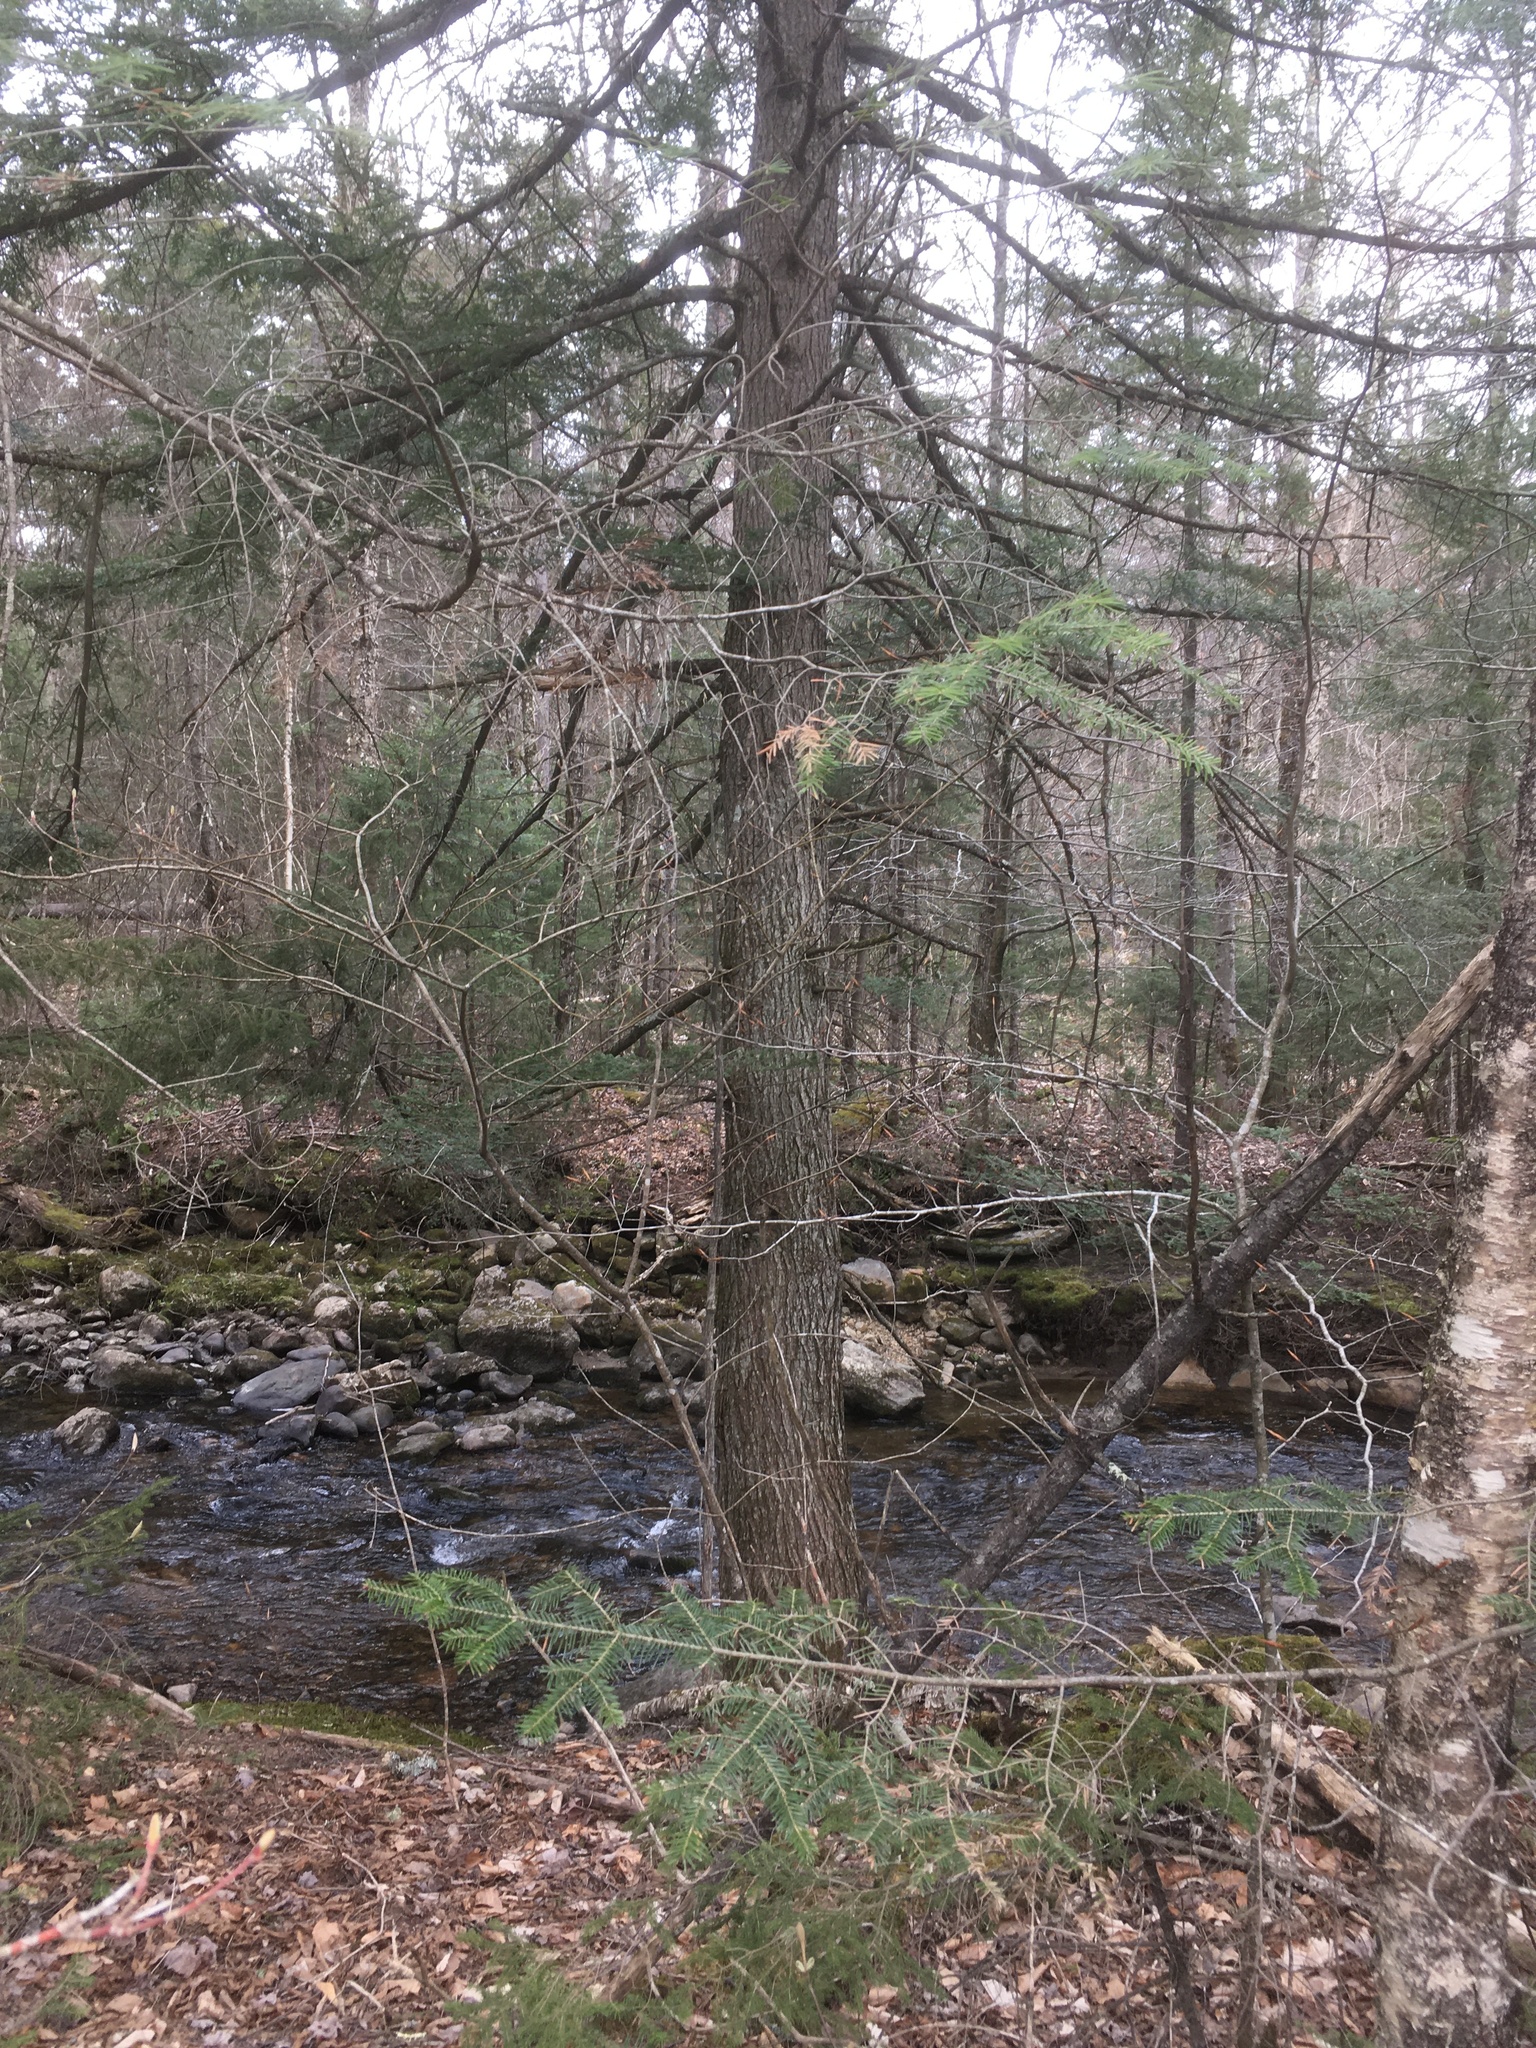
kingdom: Plantae
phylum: Tracheophyta
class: Pinopsida
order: Pinales
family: Pinaceae
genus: Tsuga
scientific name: Tsuga canadensis
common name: Eastern hemlock
